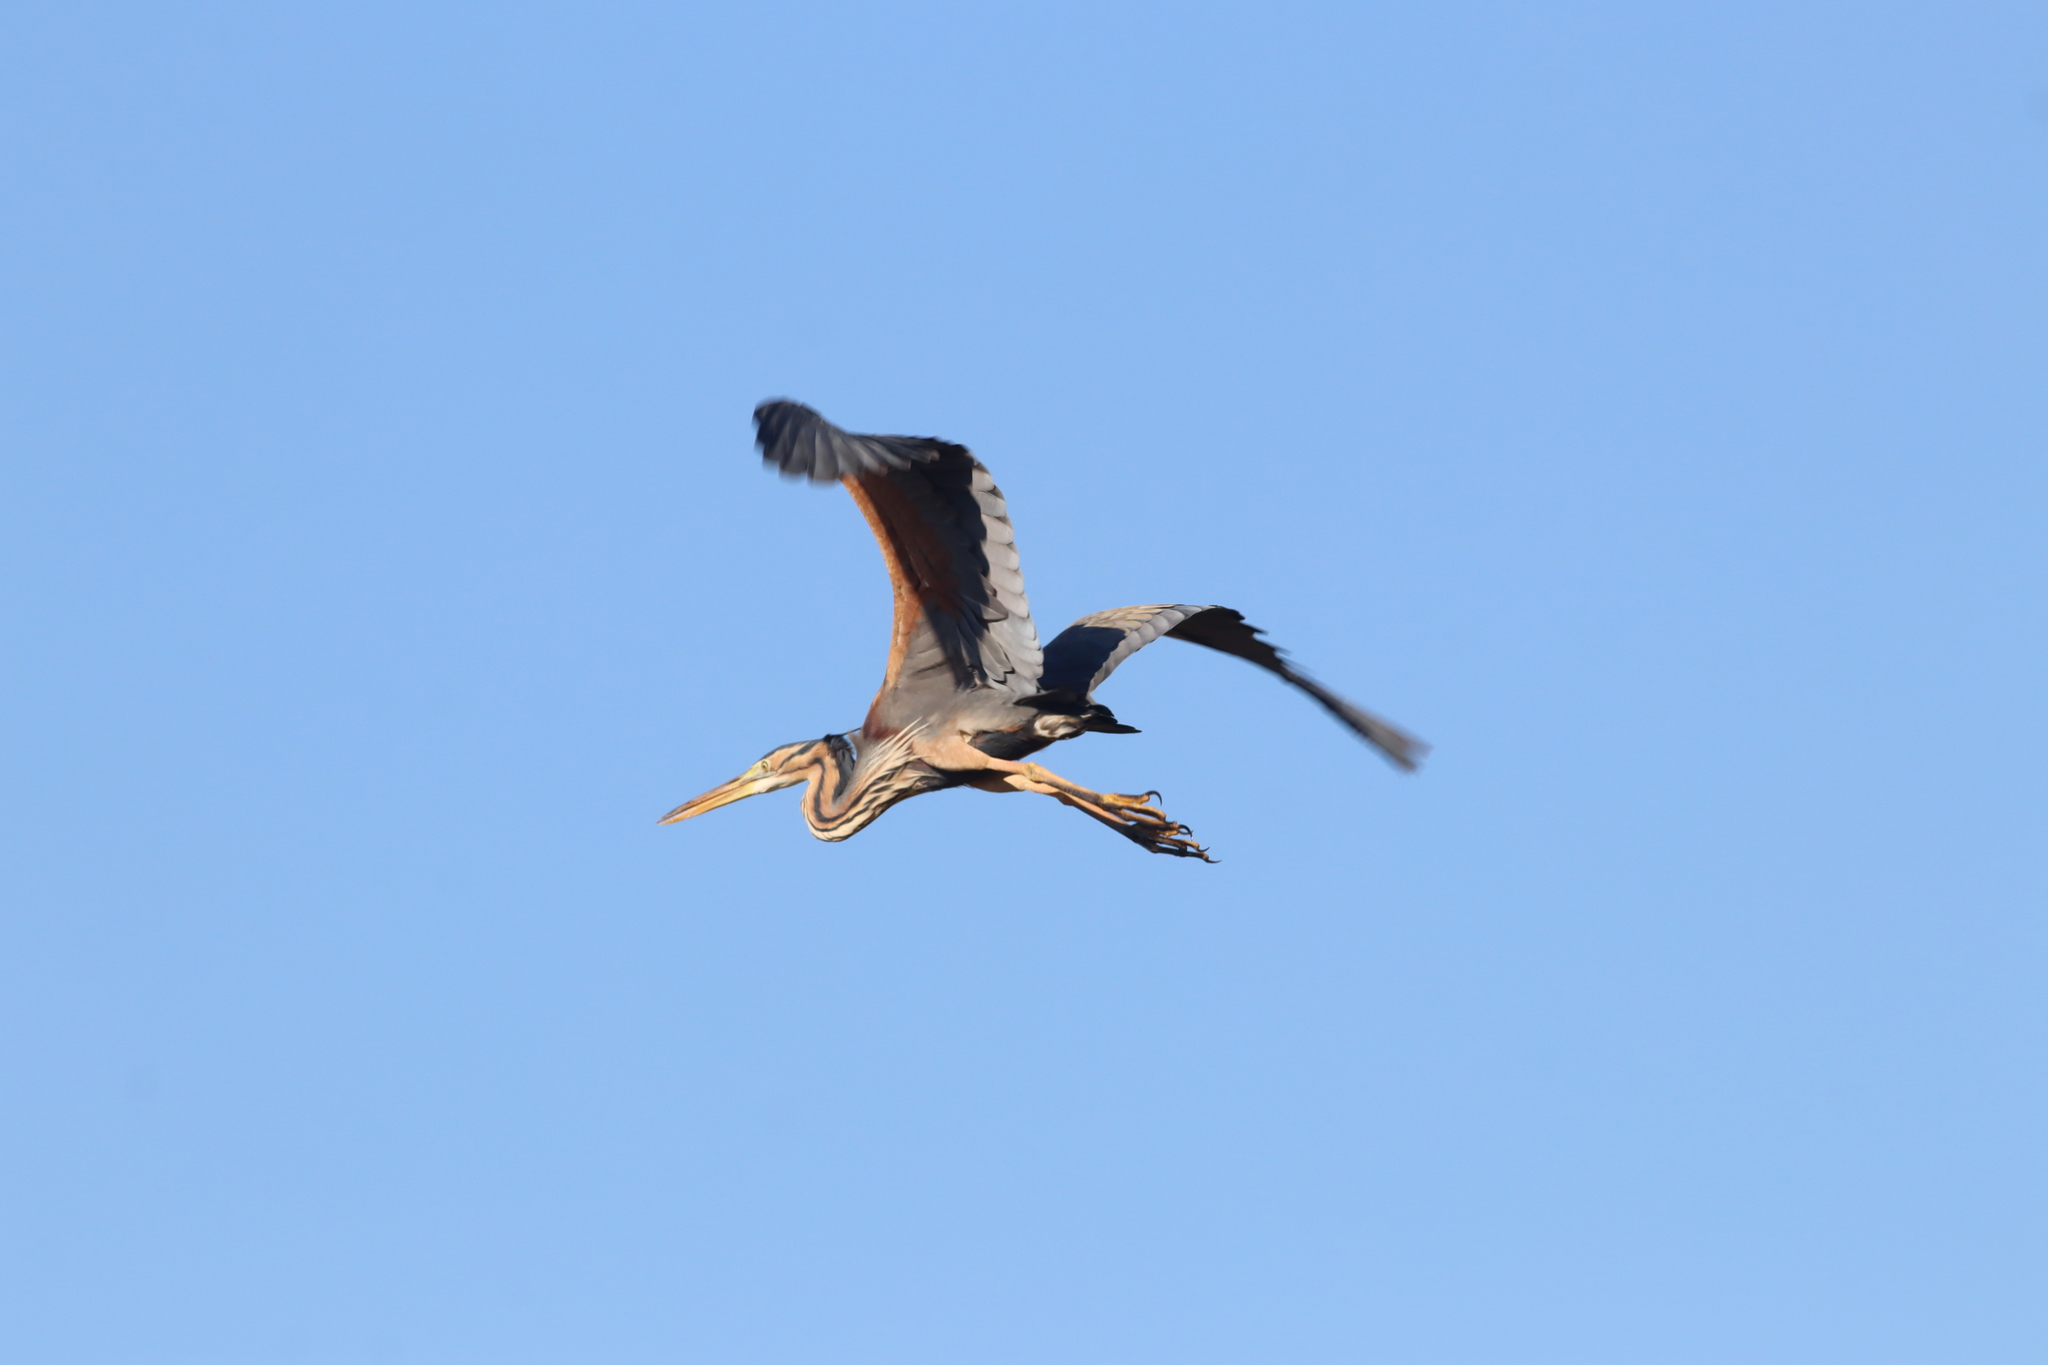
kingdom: Animalia
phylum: Chordata
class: Aves
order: Pelecaniformes
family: Ardeidae
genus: Ardea
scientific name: Ardea purpurea
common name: Purple heron
